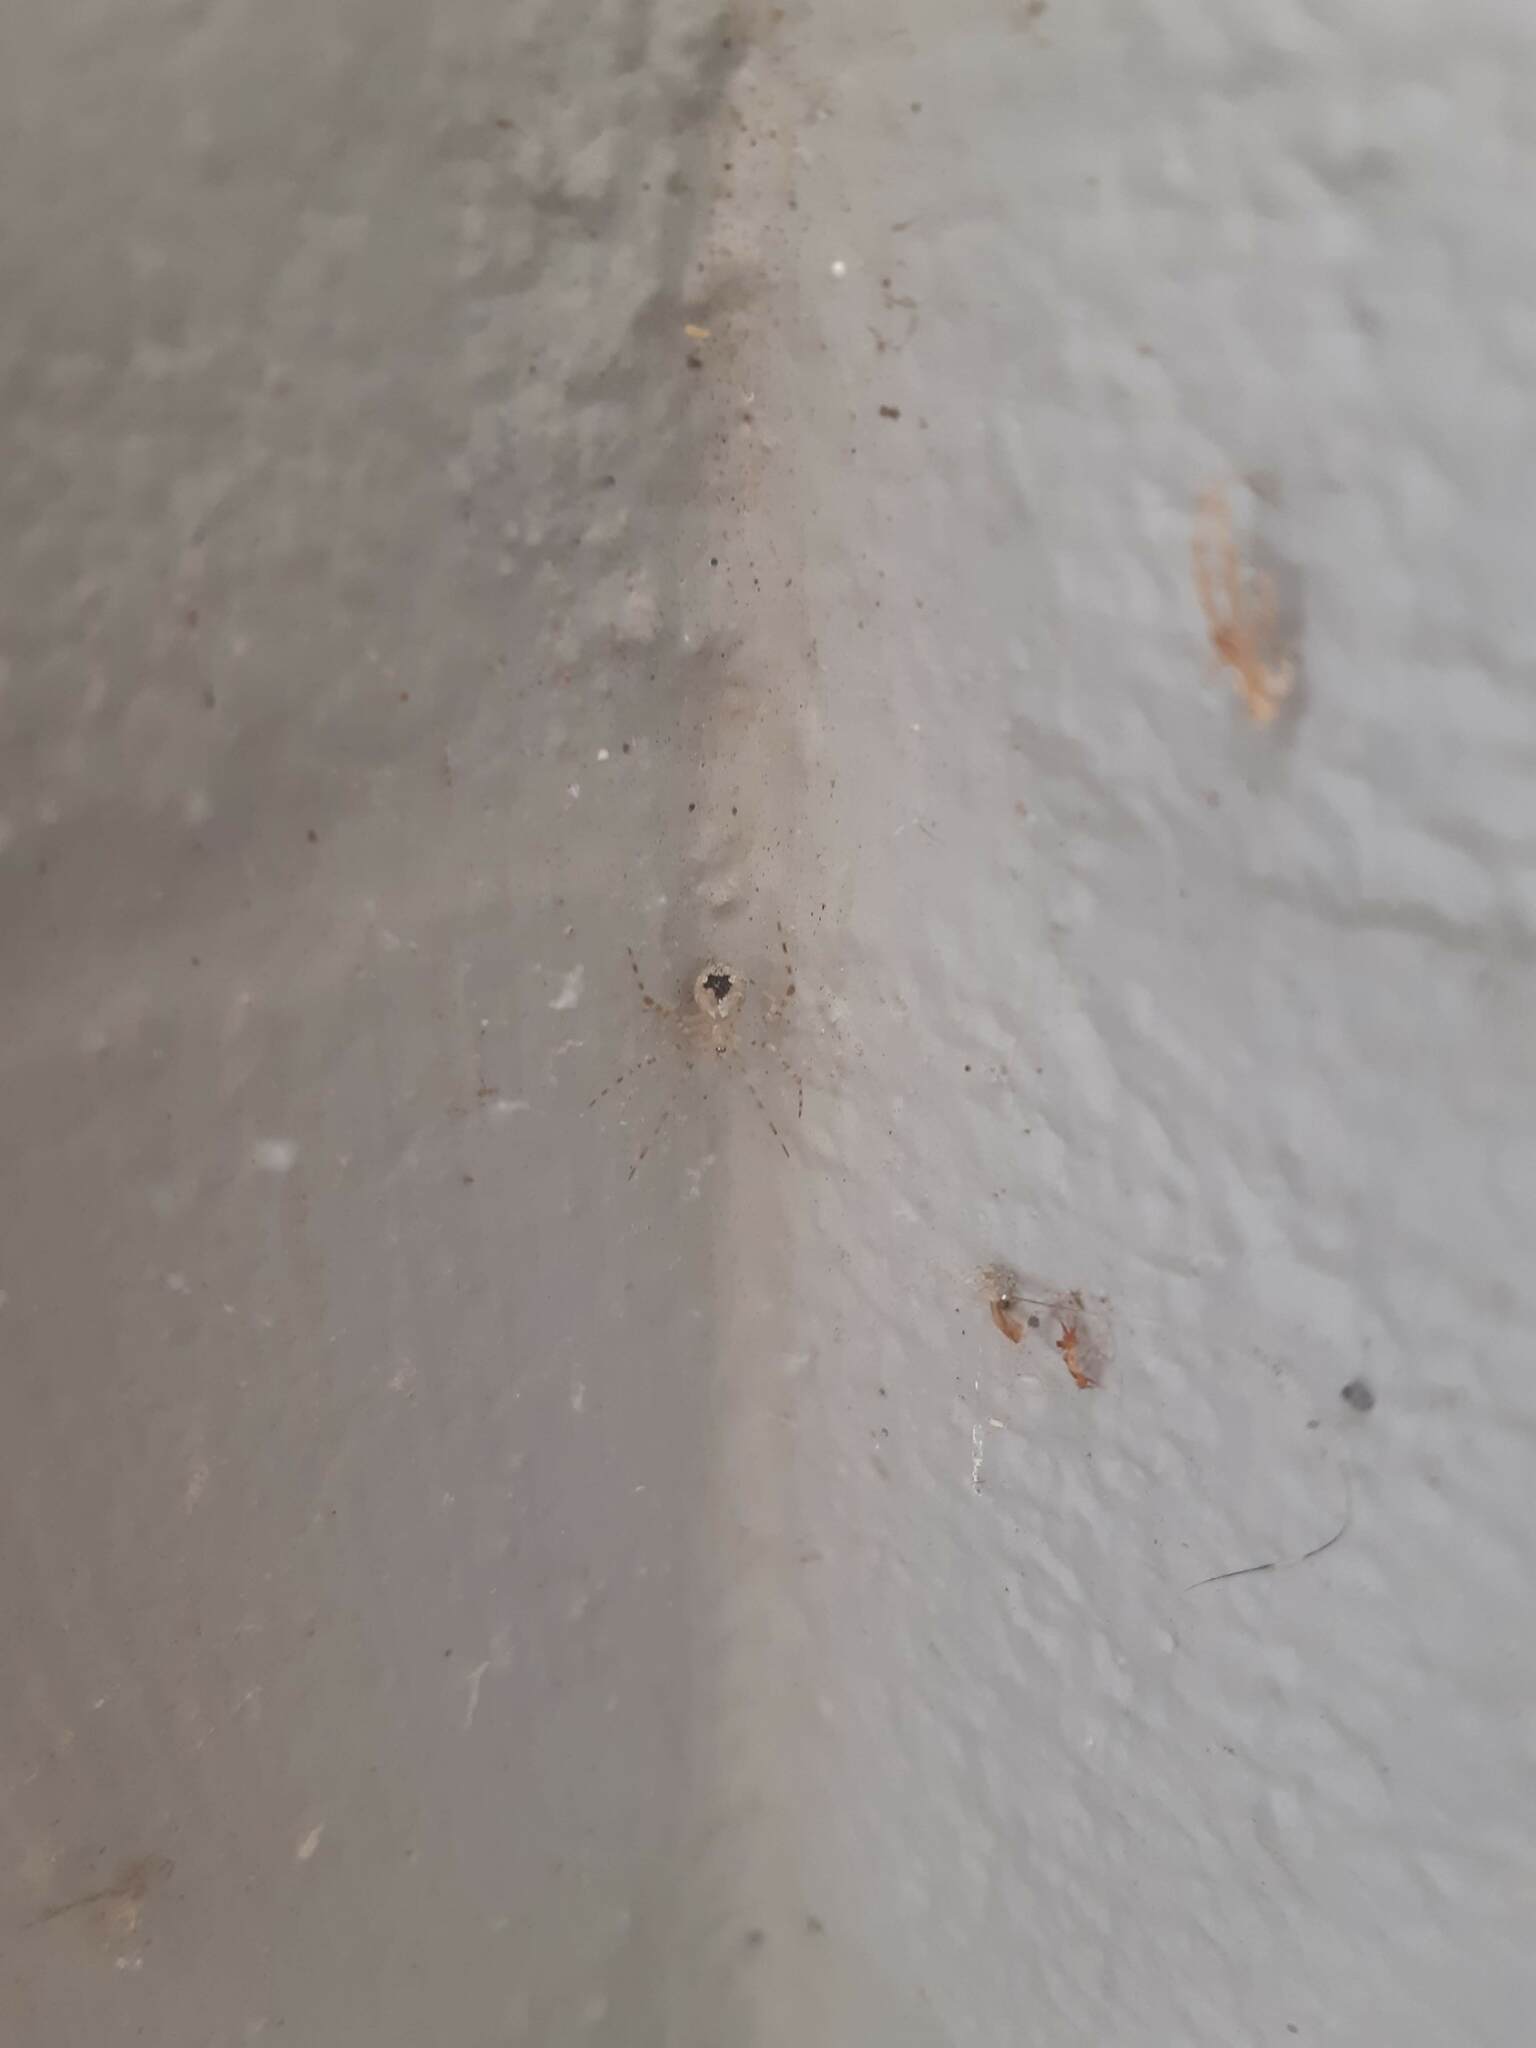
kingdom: Animalia
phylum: Arthropoda
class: Arachnida
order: Araneae
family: Theridiidae
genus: Cryptachaea
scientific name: Cryptachaea gigantipes
